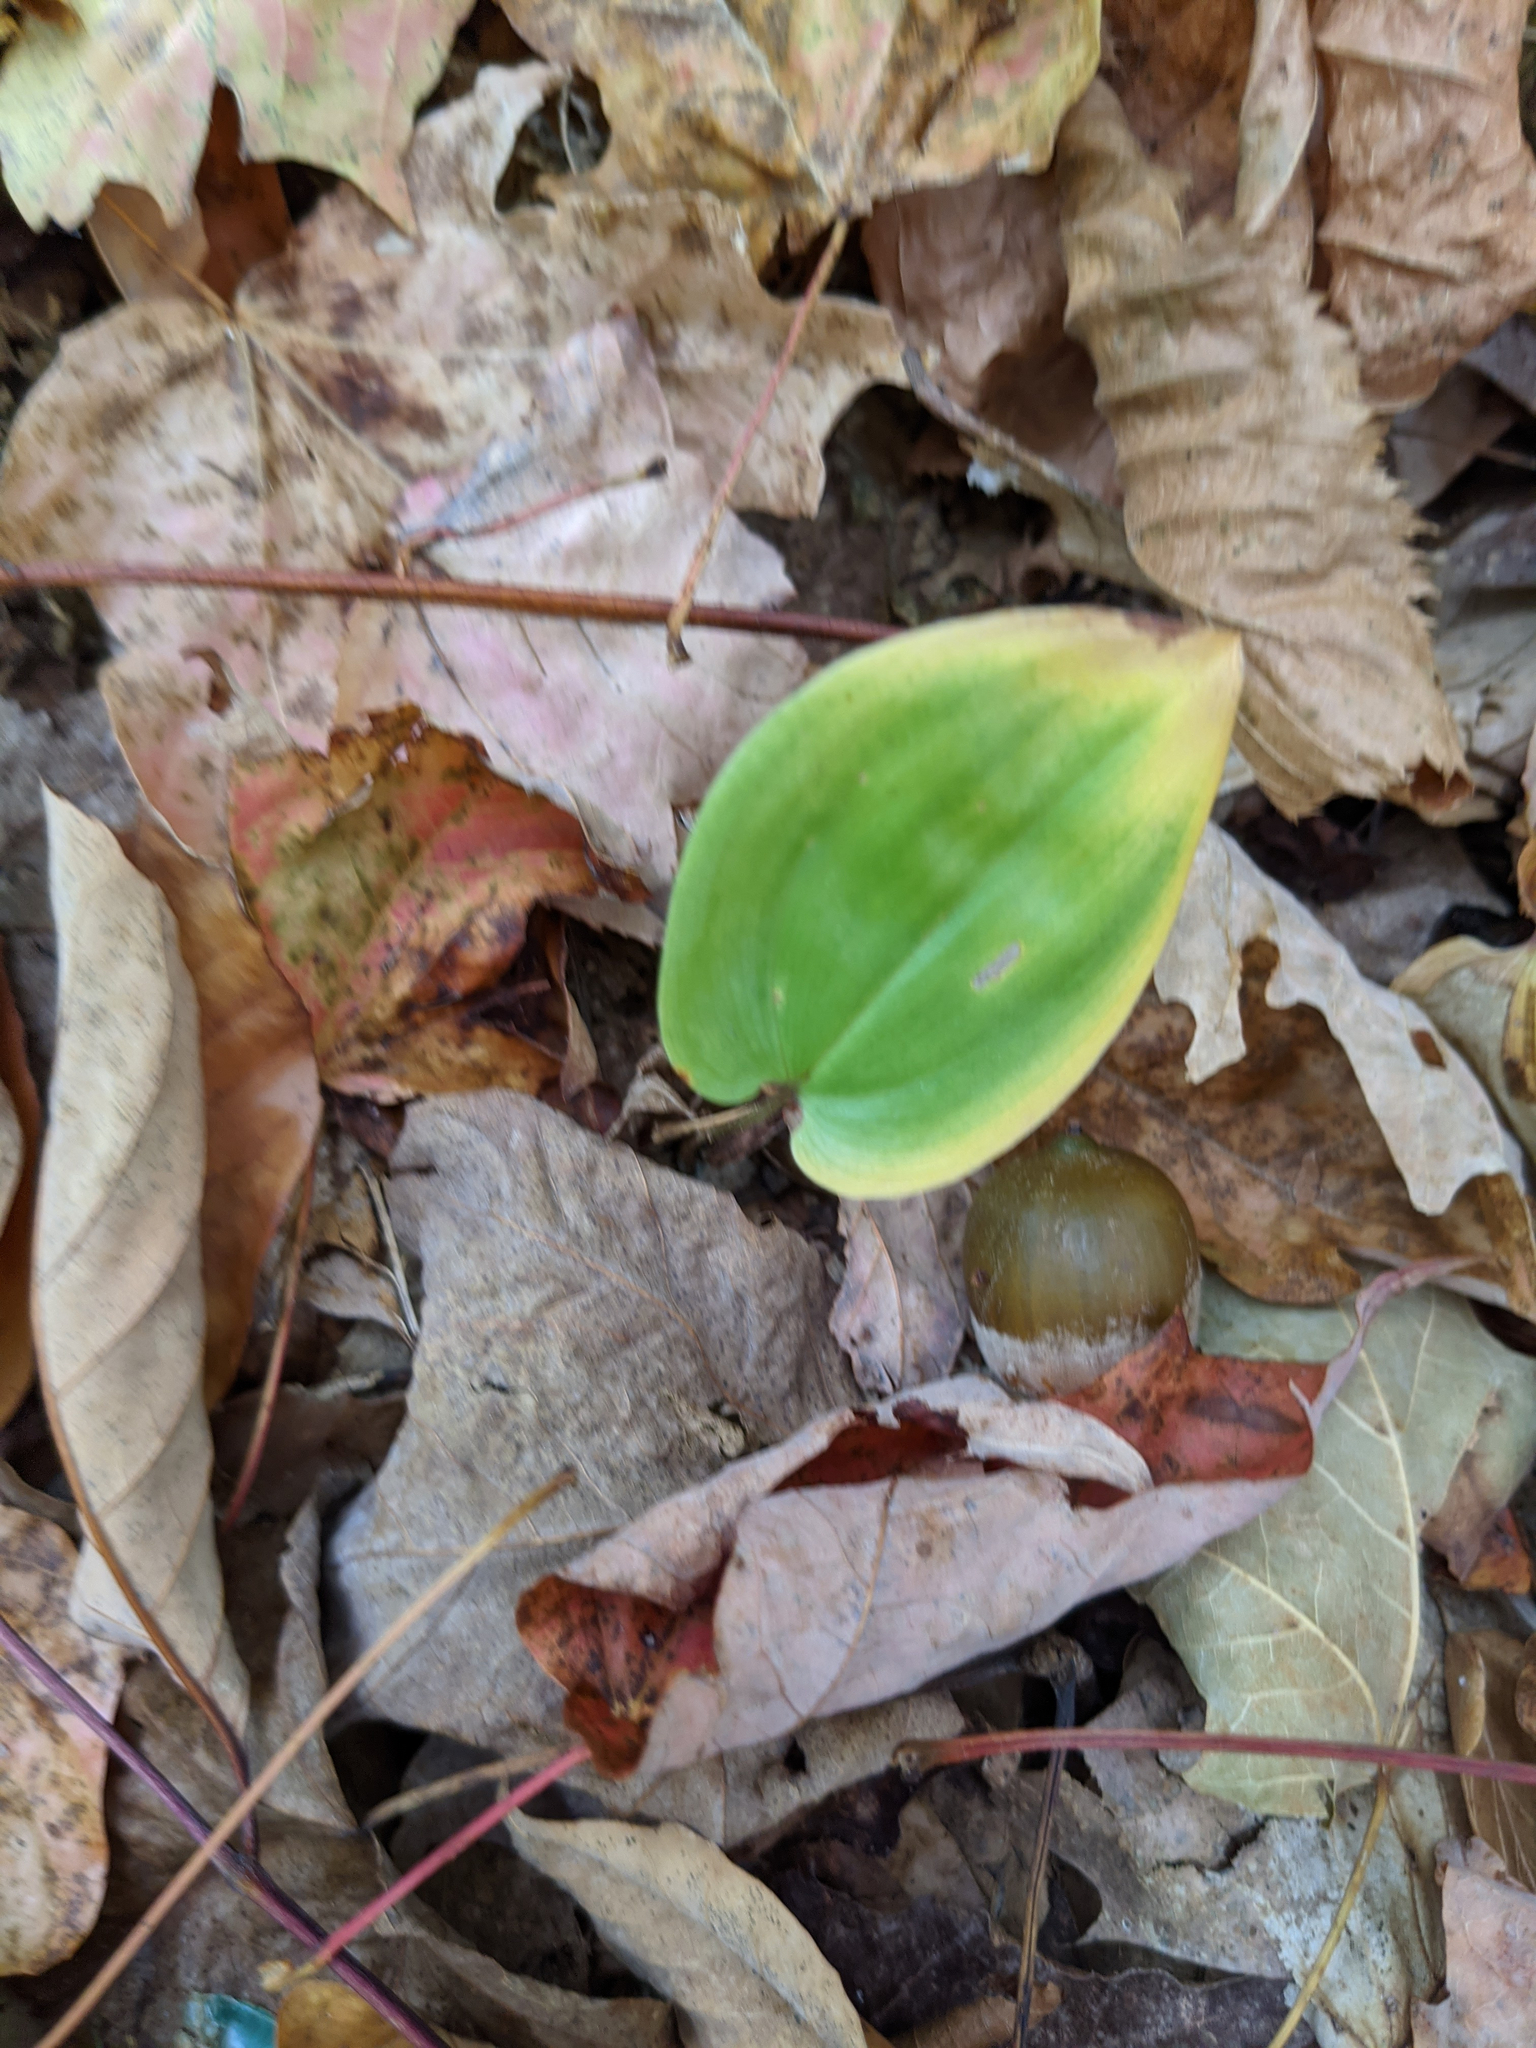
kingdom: Plantae
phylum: Tracheophyta
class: Liliopsida
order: Asparagales
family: Asparagaceae
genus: Maianthemum
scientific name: Maianthemum canadense
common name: False lily-of-the-valley
